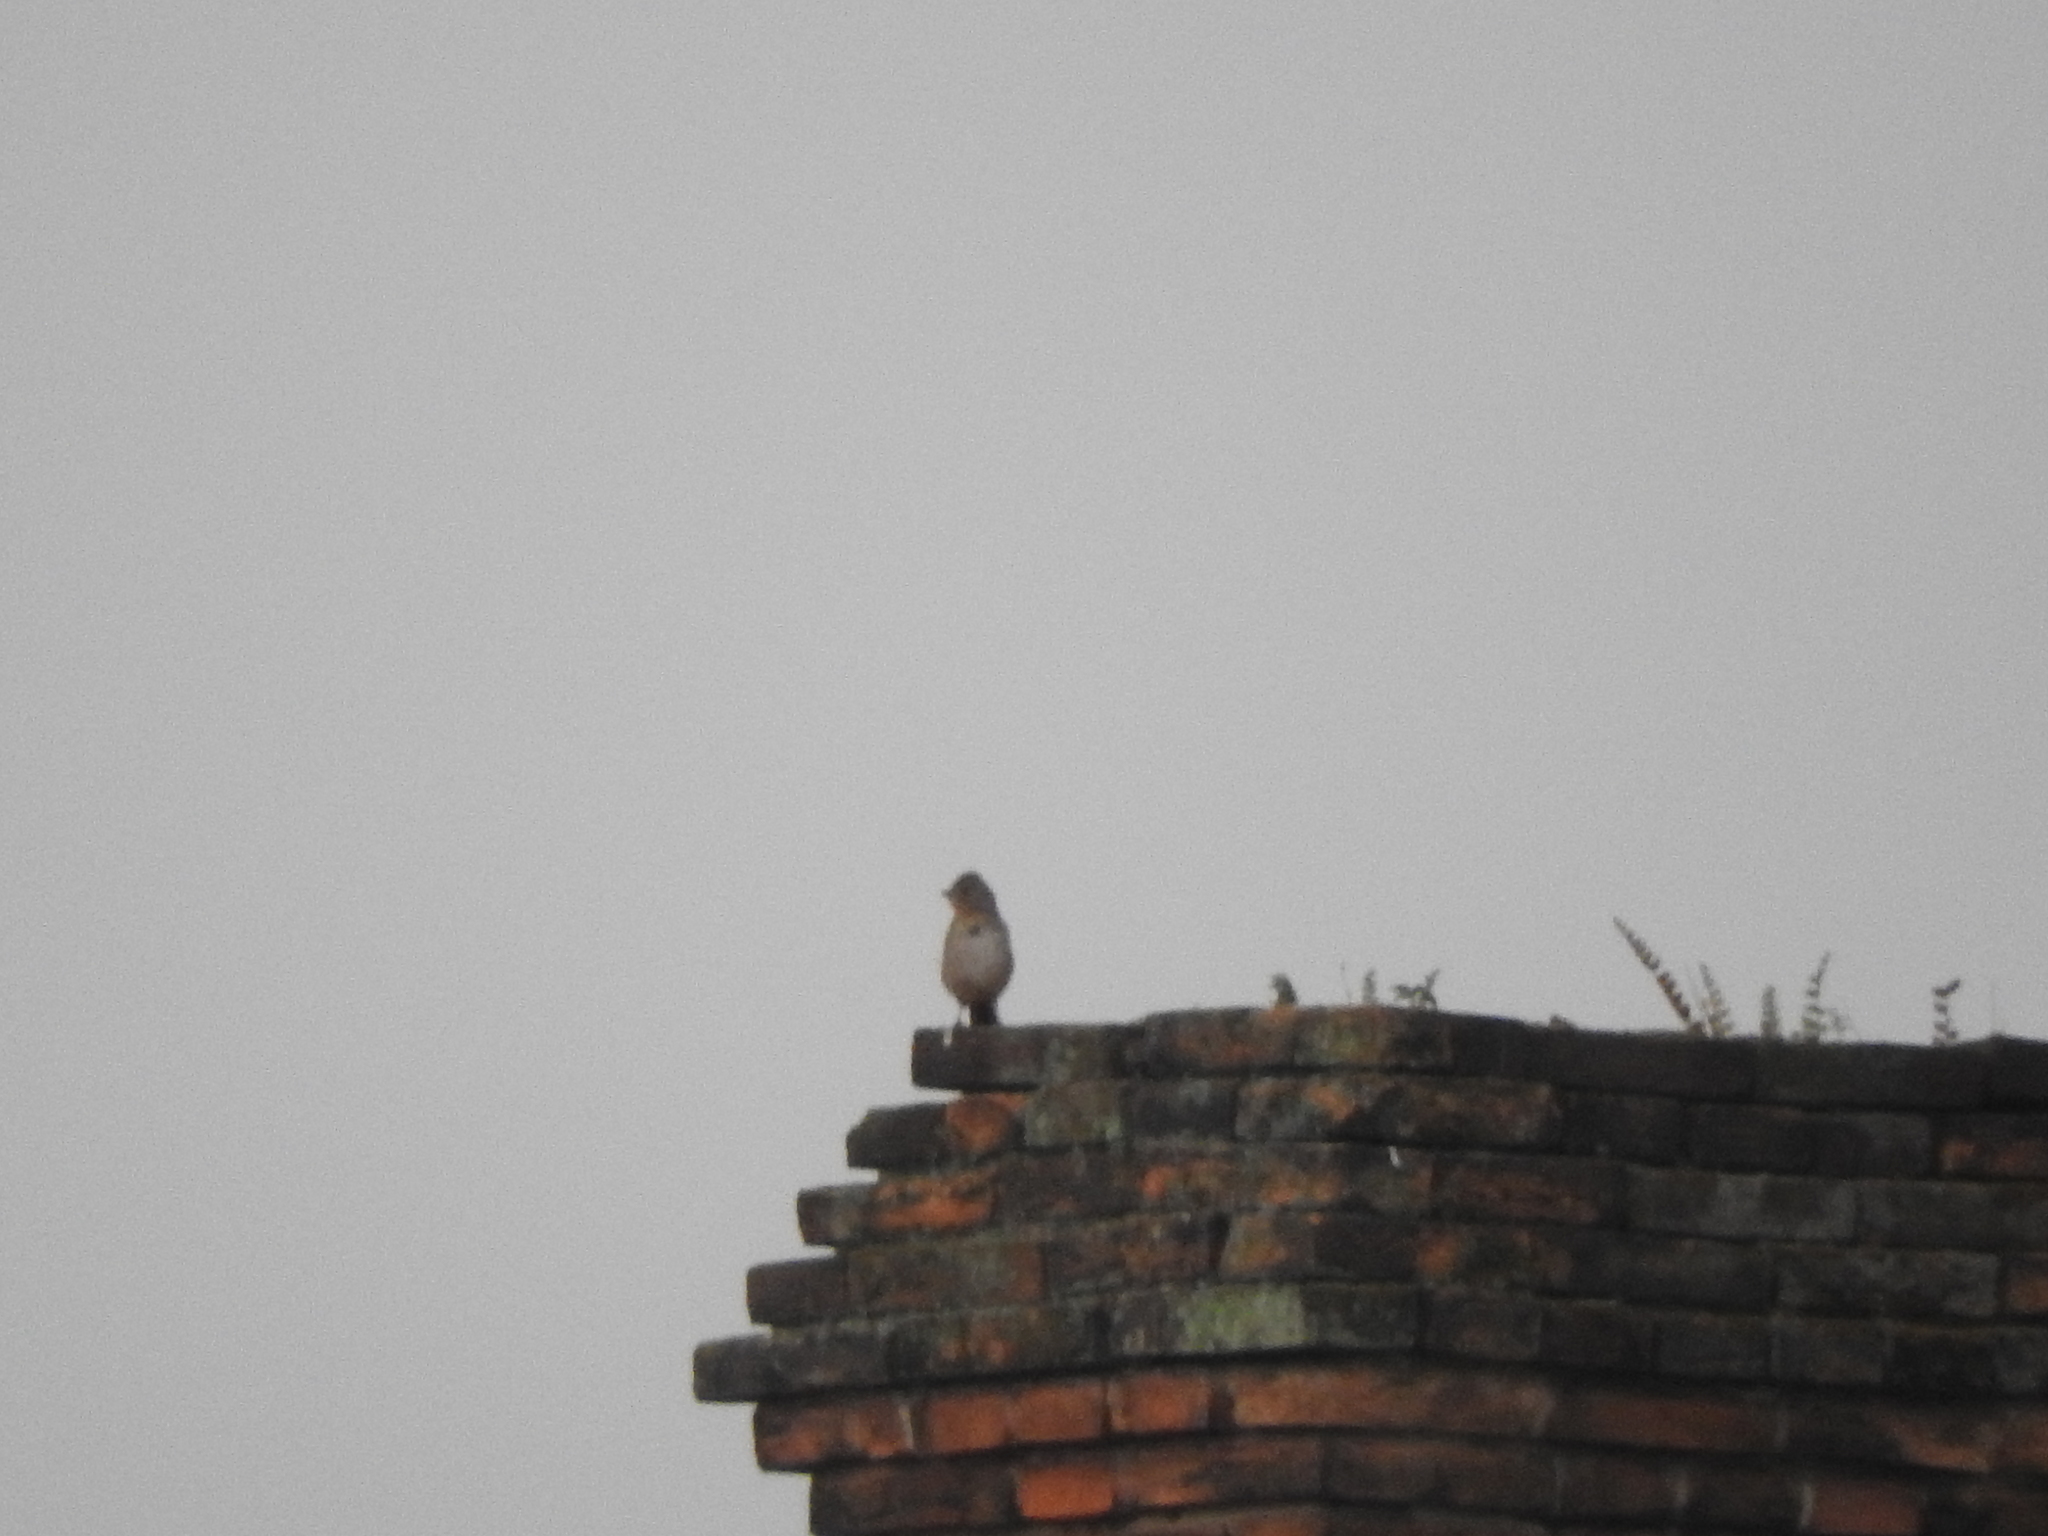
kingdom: Animalia
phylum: Chordata
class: Aves
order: Passeriformes
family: Passerellidae
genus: Melozone
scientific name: Melozone fusca
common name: Canyon towhee
